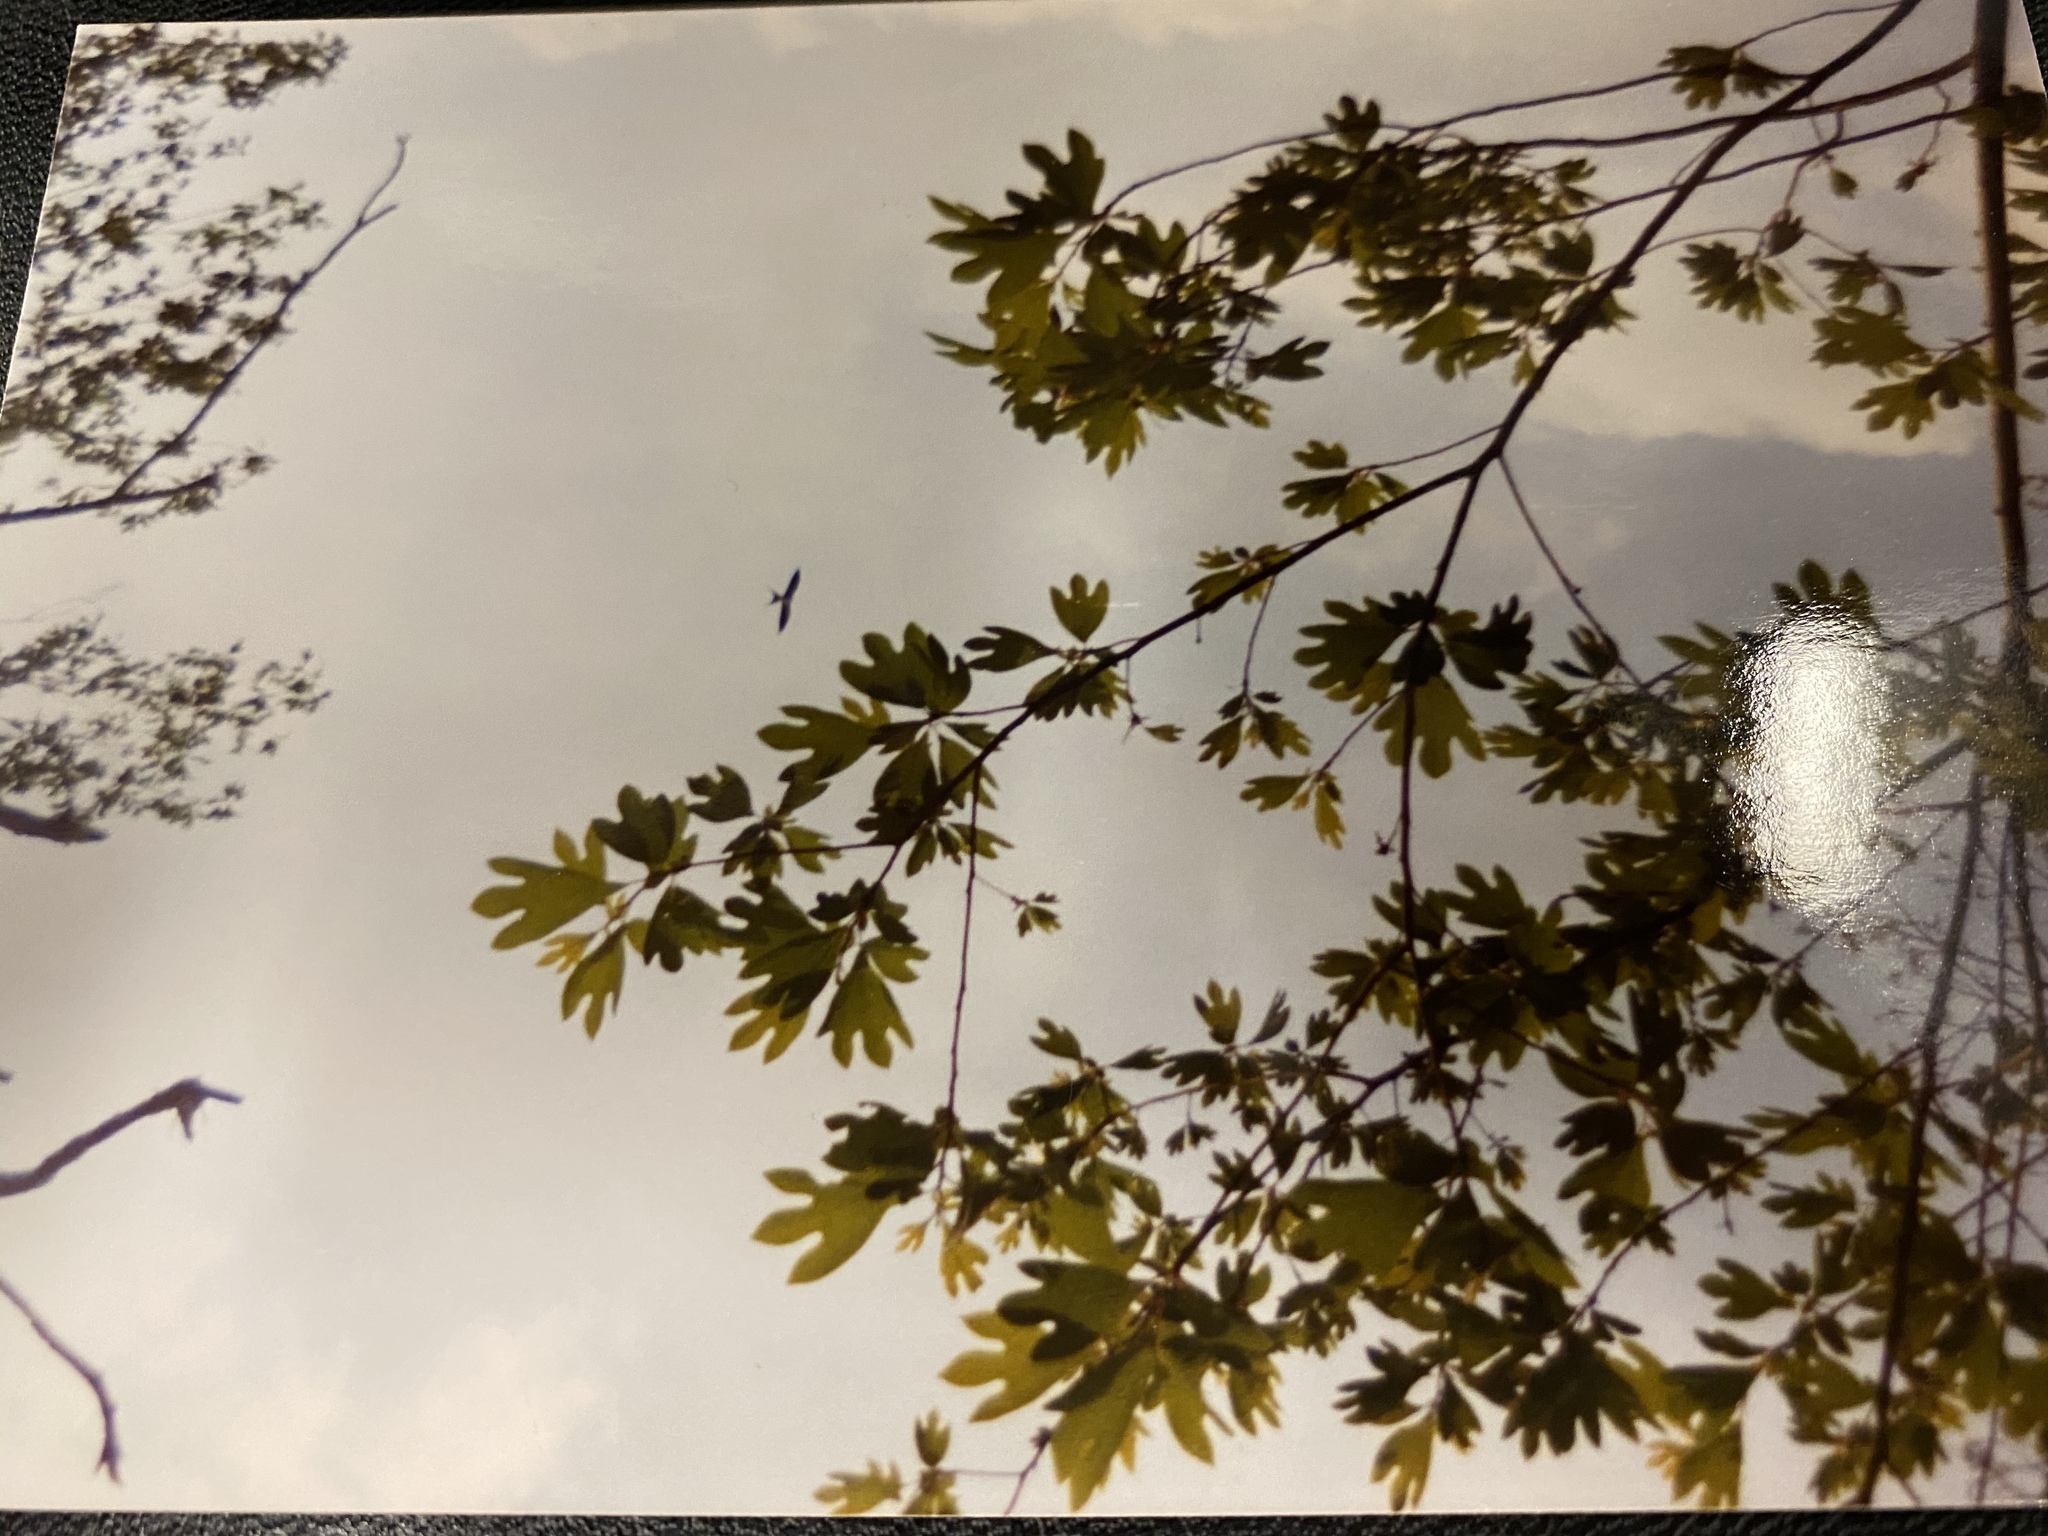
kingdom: Animalia
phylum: Chordata
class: Aves
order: Accipitriformes
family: Accipitridae
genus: Elanoides
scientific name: Elanoides forficatus
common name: Swallow-tailed kite
